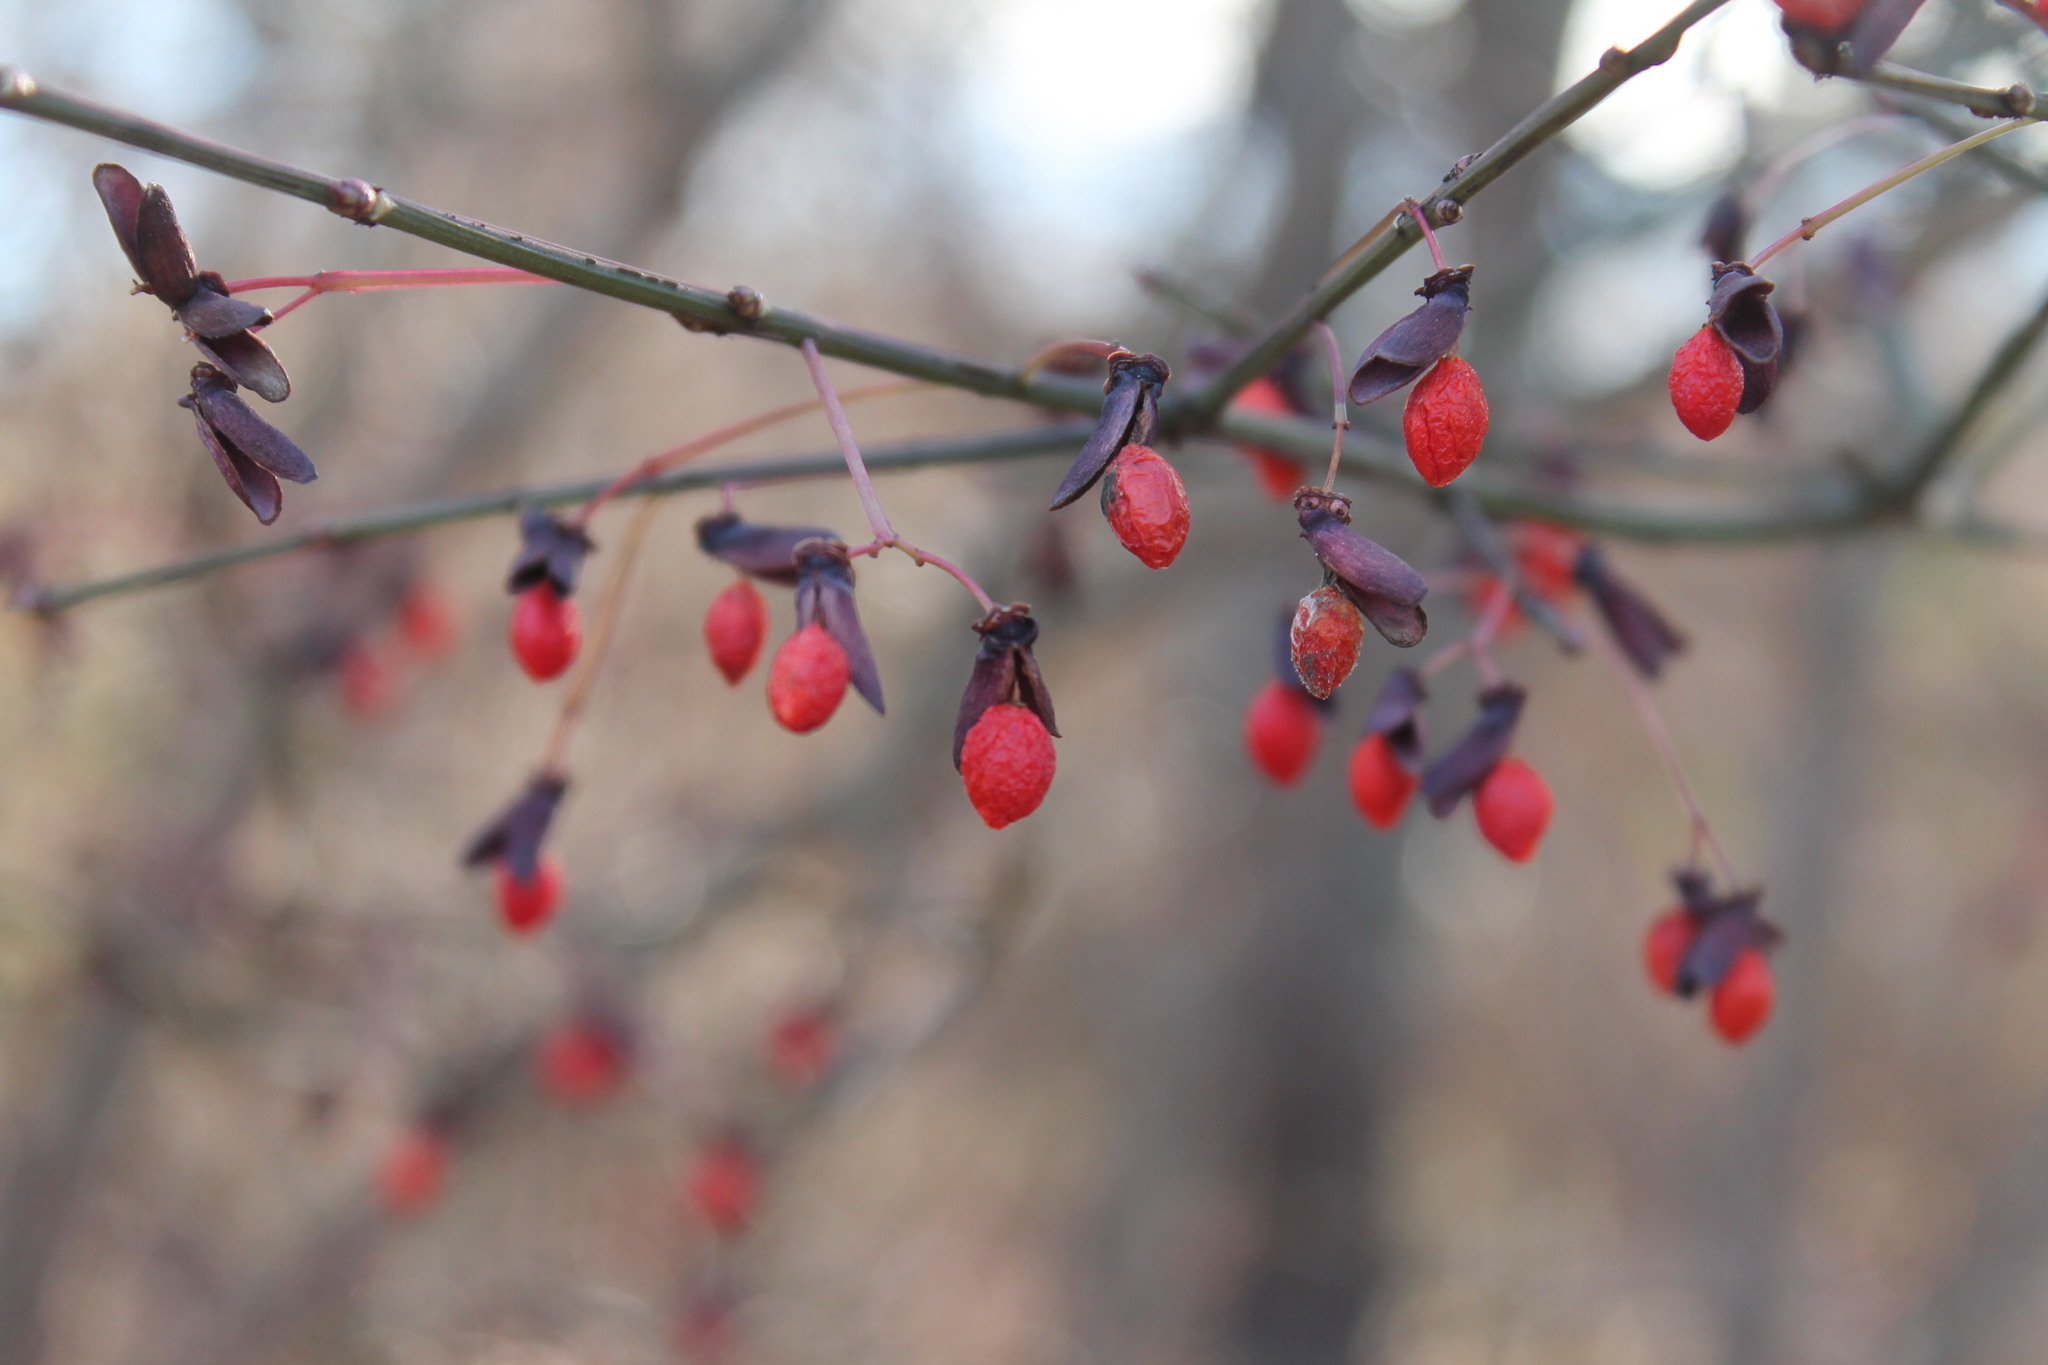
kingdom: Plantae
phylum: Tracheophyta
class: Magnoliopsida
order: Celastrales
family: Celastraceae
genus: Euonymus
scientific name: Euonymus alatus
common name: Winged euonymus
